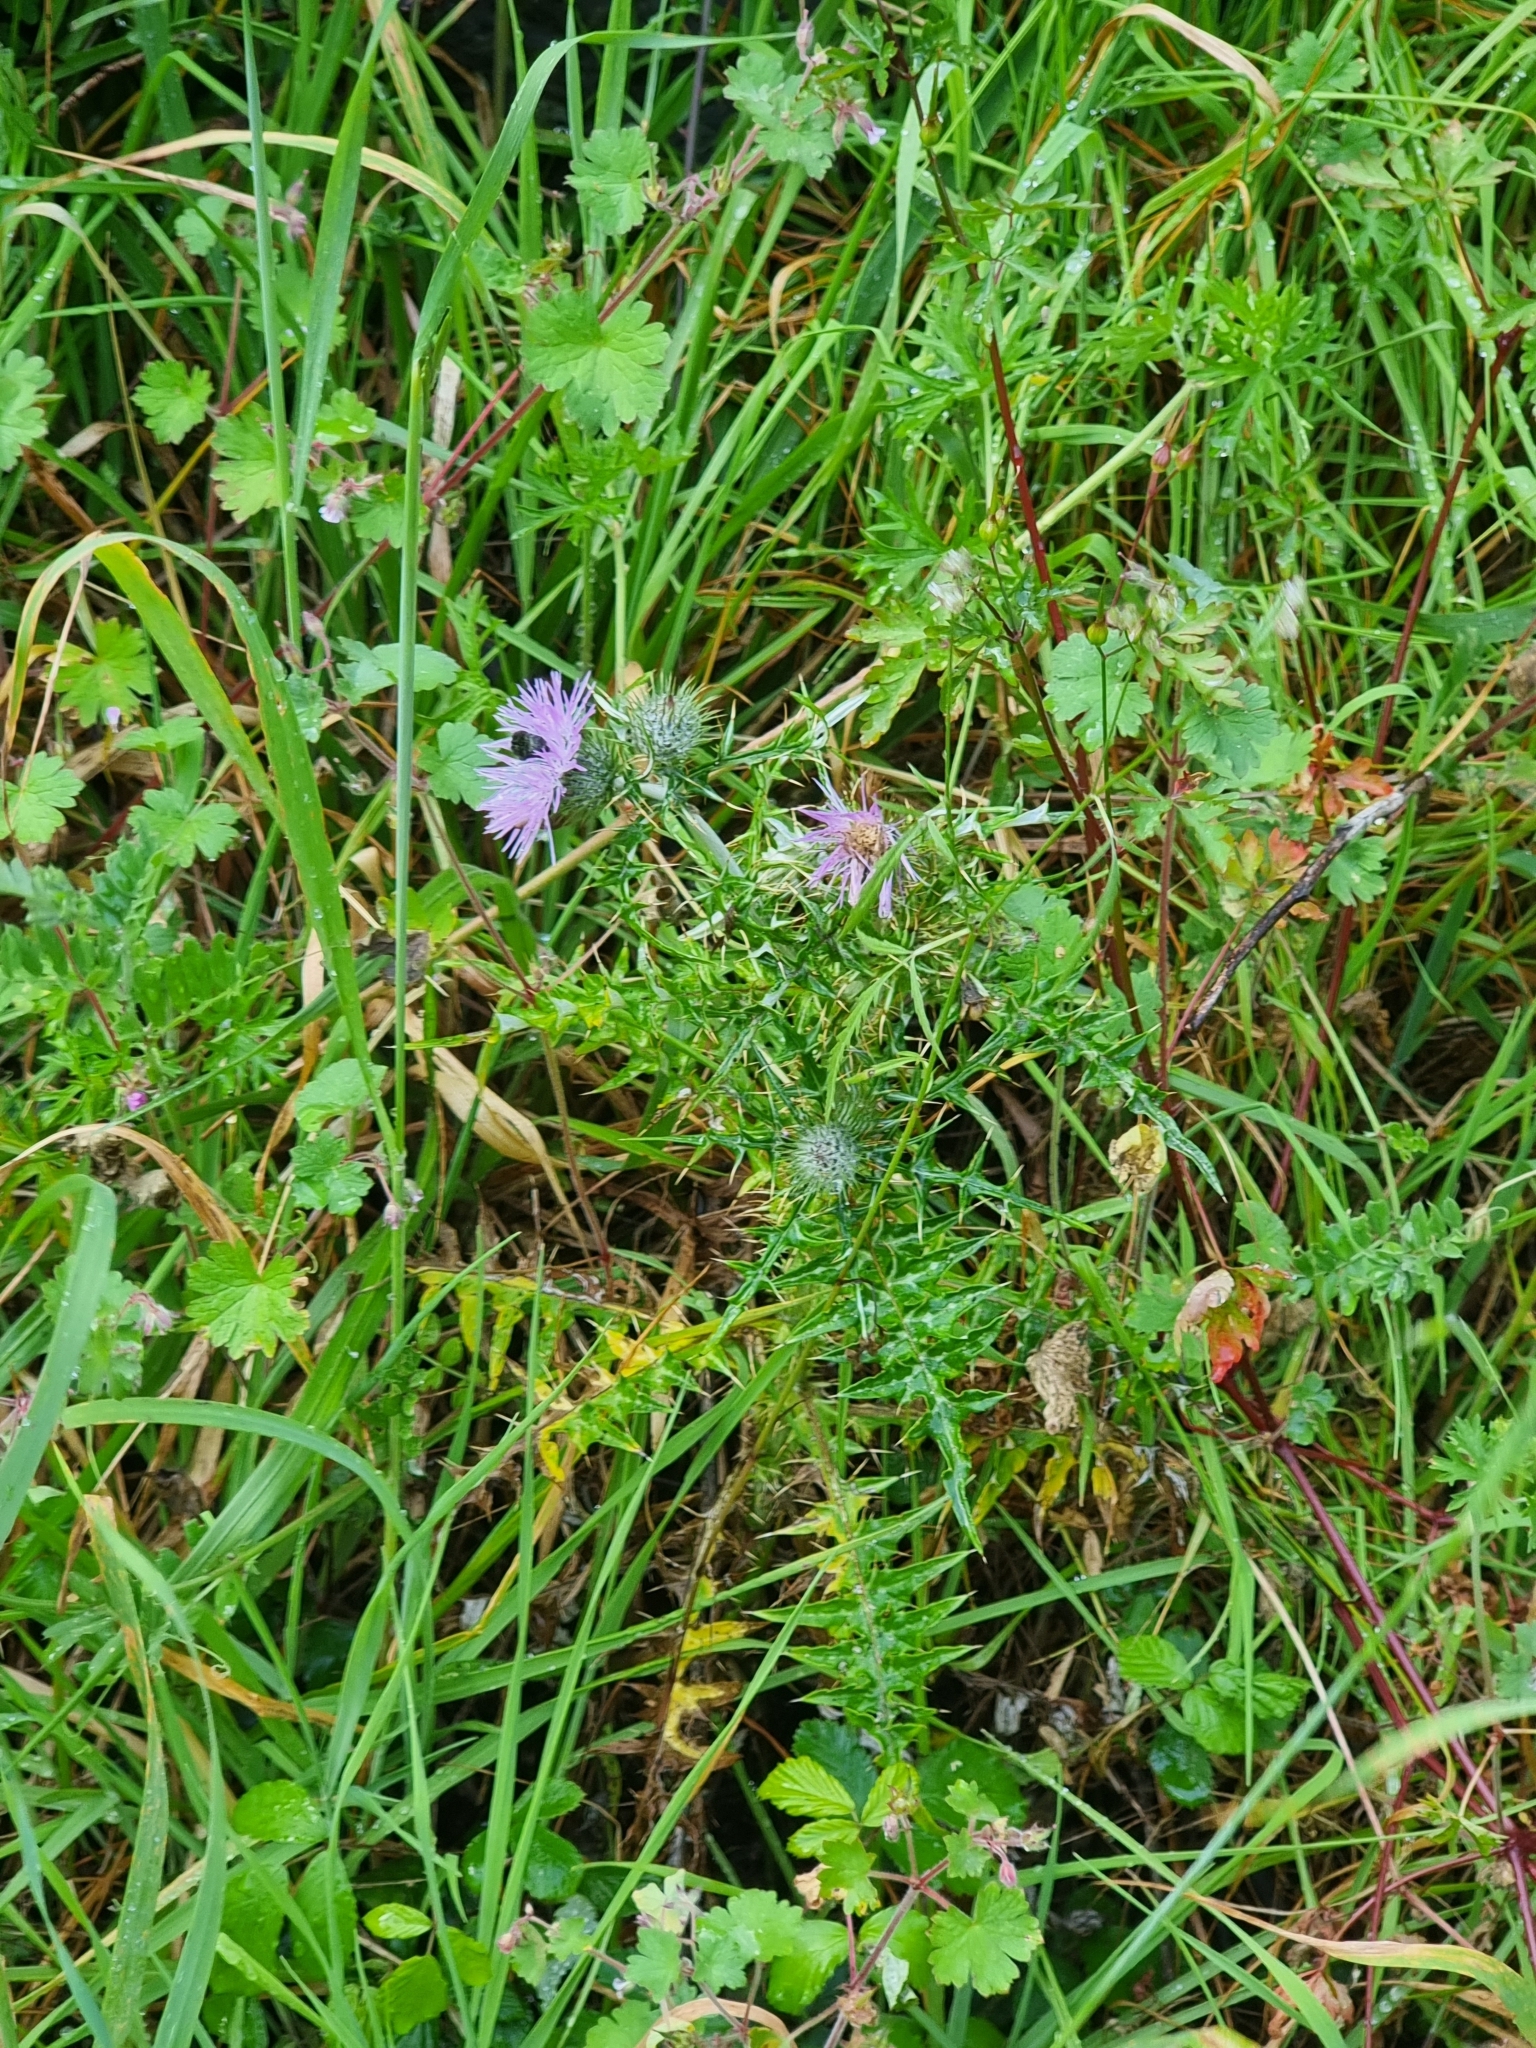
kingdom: Plantae
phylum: Tracheophyta
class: Magnoliopsida
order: Asterales
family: Asteraceae
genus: Galactites
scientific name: Galactites tomentosa
